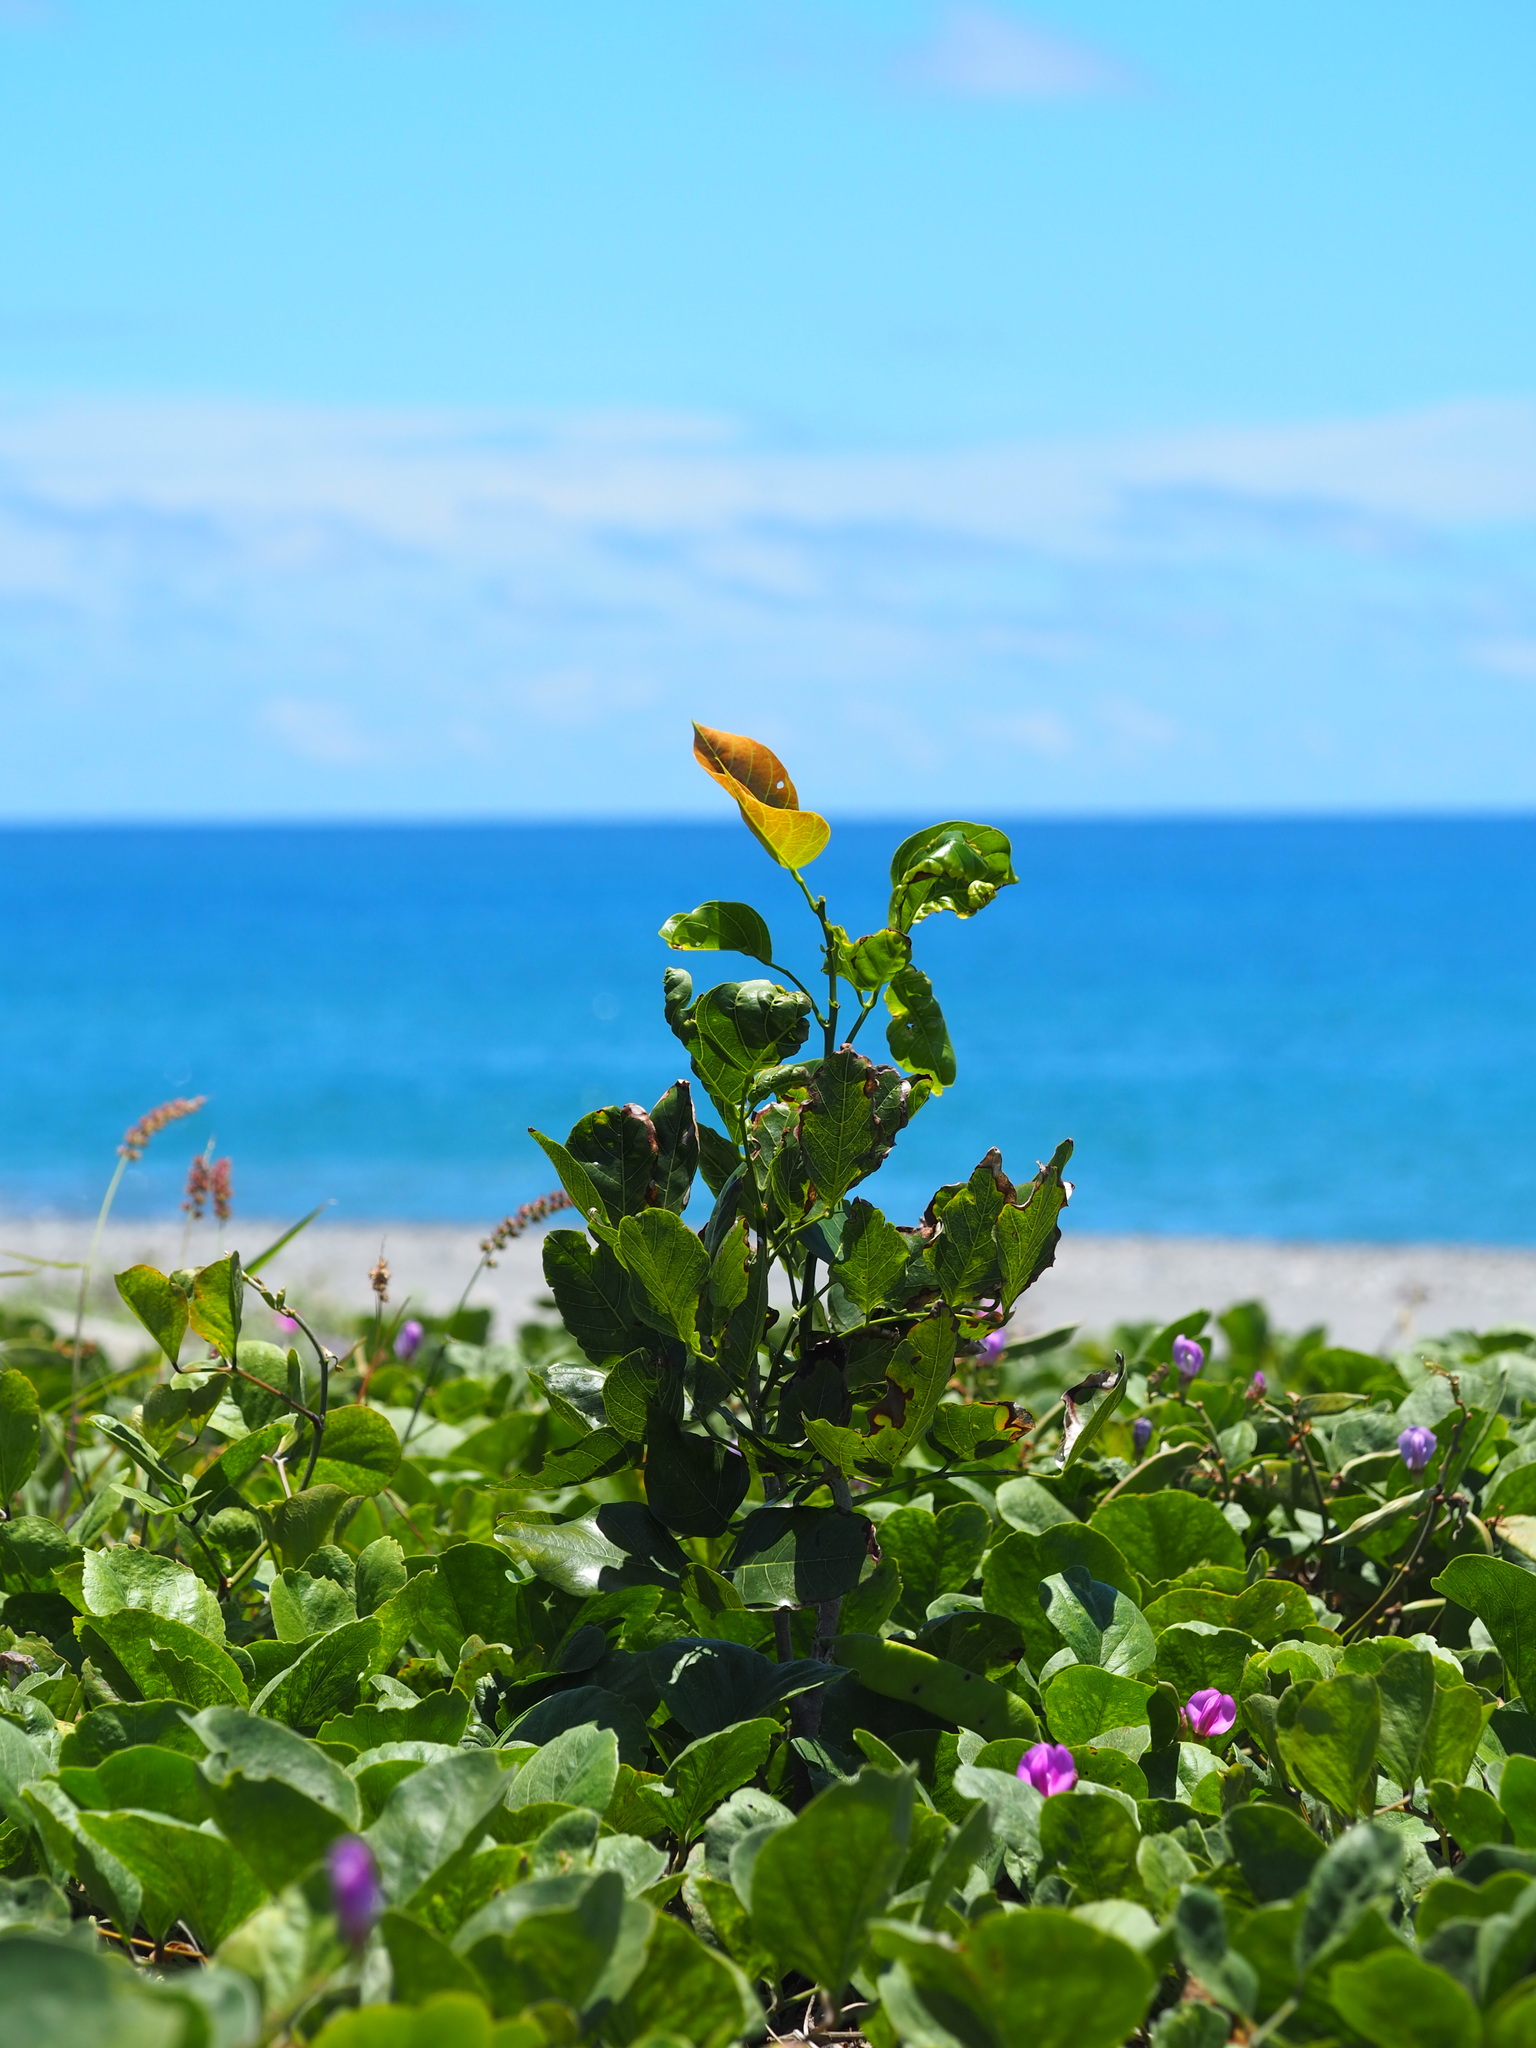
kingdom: Plantae
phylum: Tracheophyta
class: Magnoliopsida
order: Fabales
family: Fabaceae
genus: Pongamia
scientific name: Pongamia pinnata
